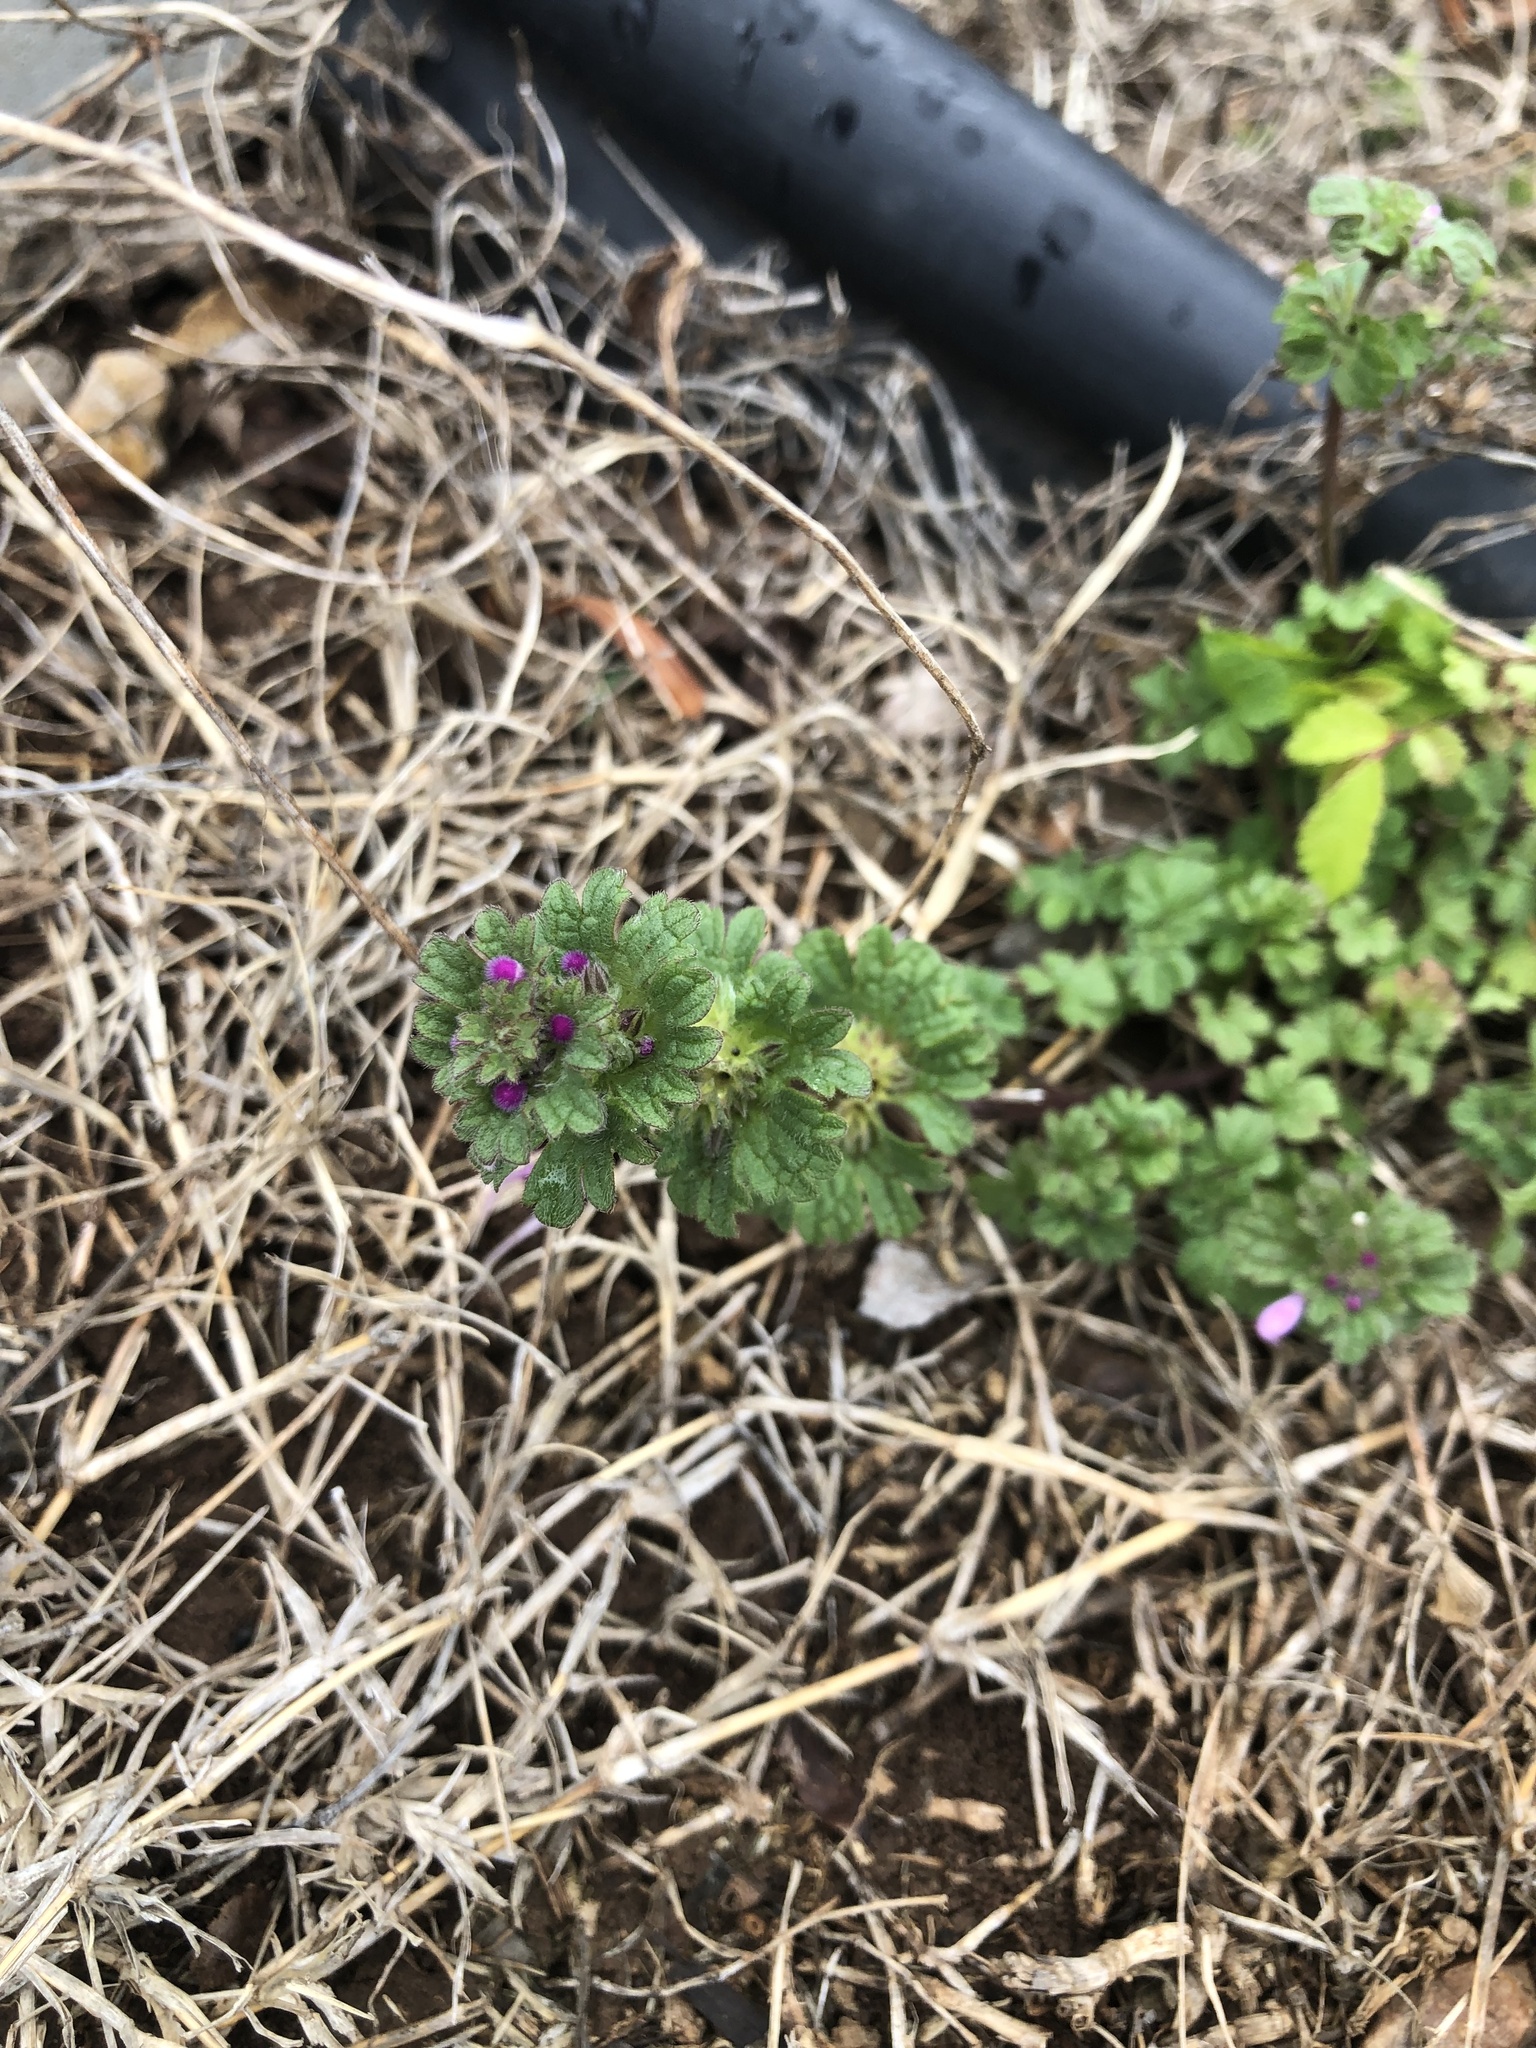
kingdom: Plantae
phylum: Tracheophyta
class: Magnoliopsida
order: Lamiales
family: Lamiaceae
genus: Lamium
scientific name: Lamium amplexicaule
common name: Henbit dead-nettle
